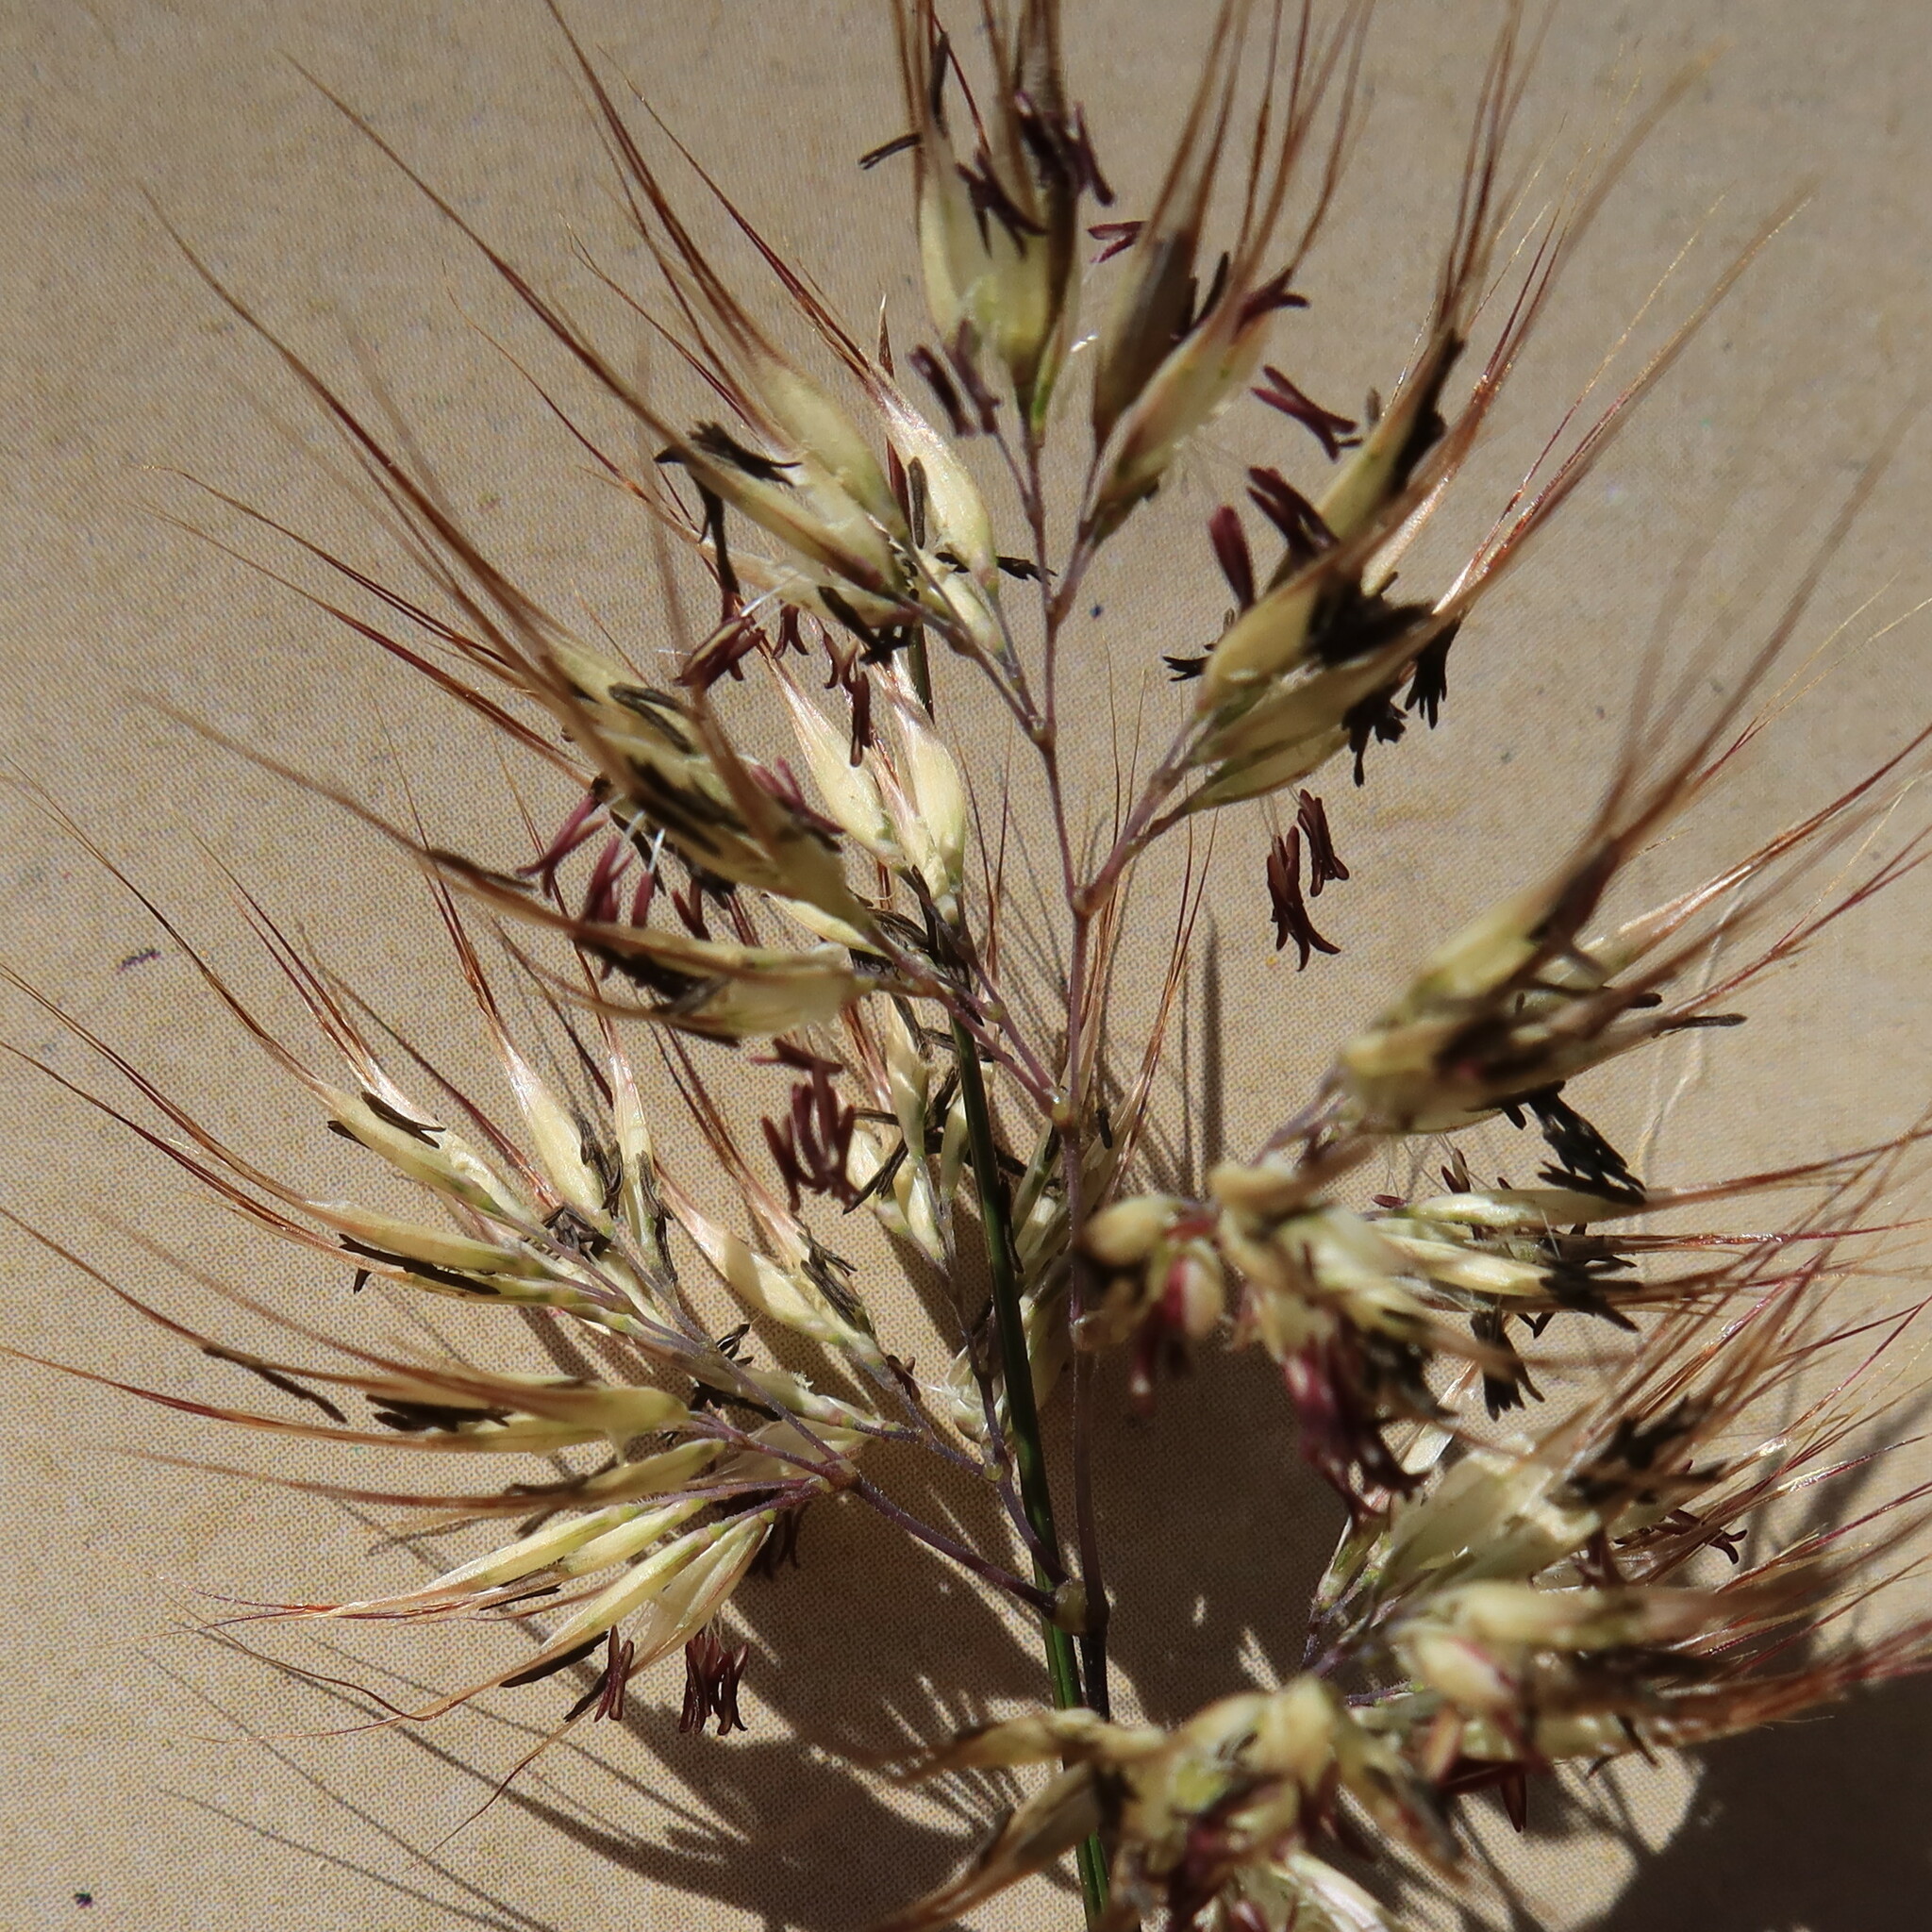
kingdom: Plantae
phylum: Tracheophyta
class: Liliopsida
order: Poales
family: Poaceae
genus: Pentameris
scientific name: Pentameris curvifolia
